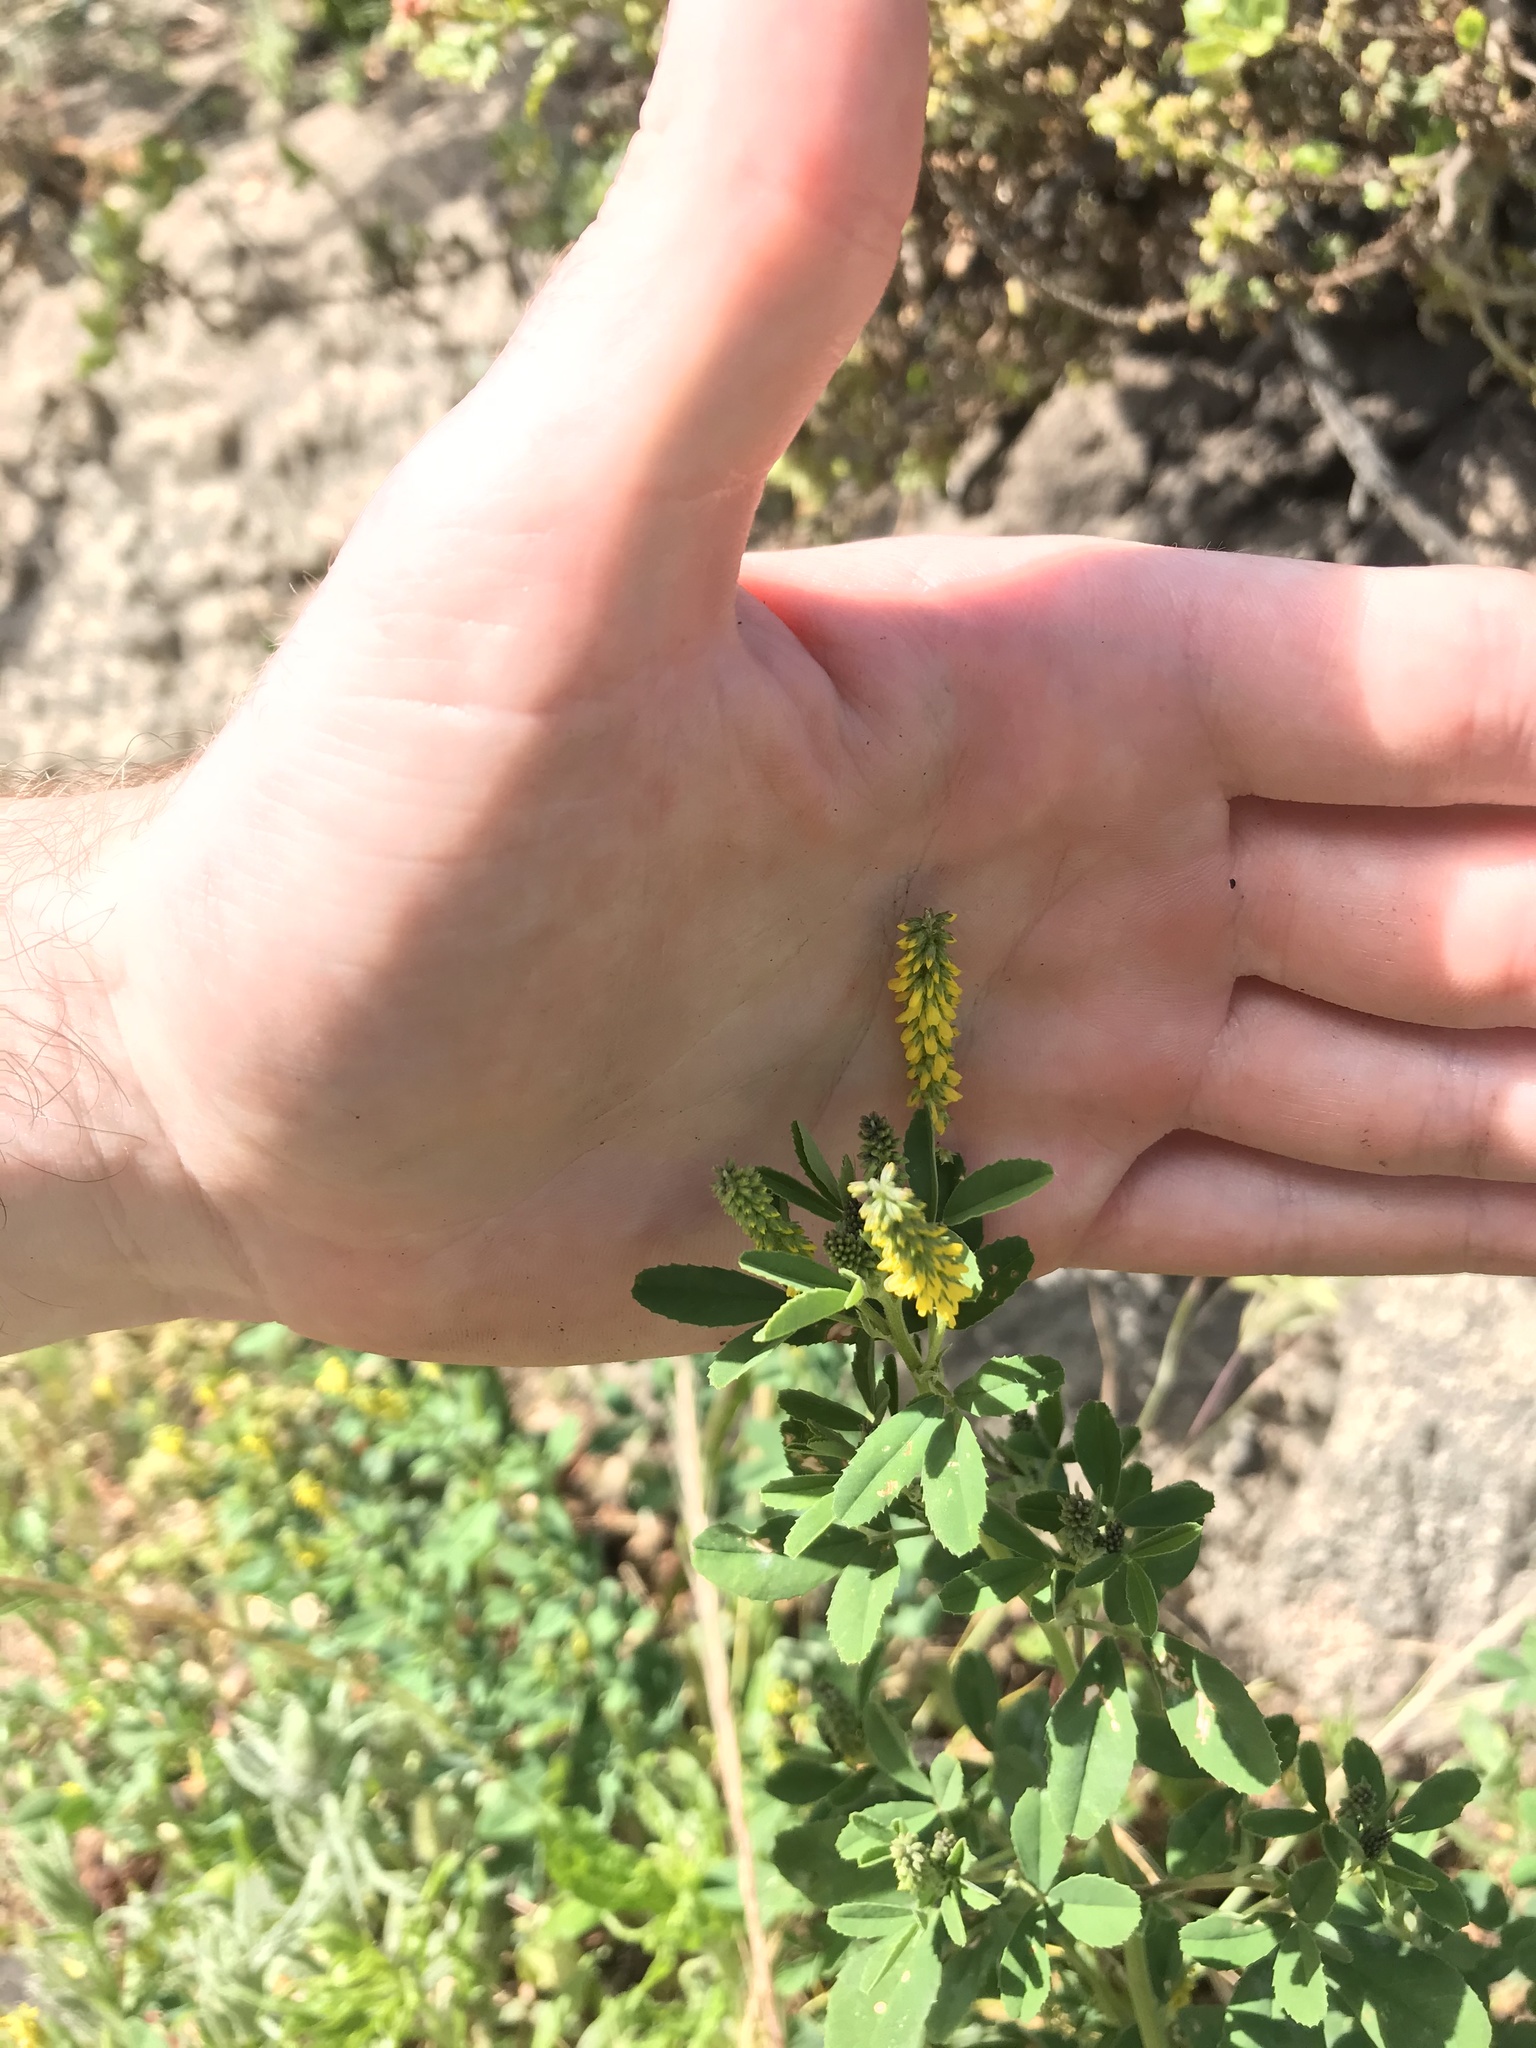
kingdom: Plantae
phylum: Tracheophyta
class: Magnoliopsida
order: Fabales
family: Fabaceae
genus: Melilotus
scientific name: Melilotus indicus
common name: Small melilot
